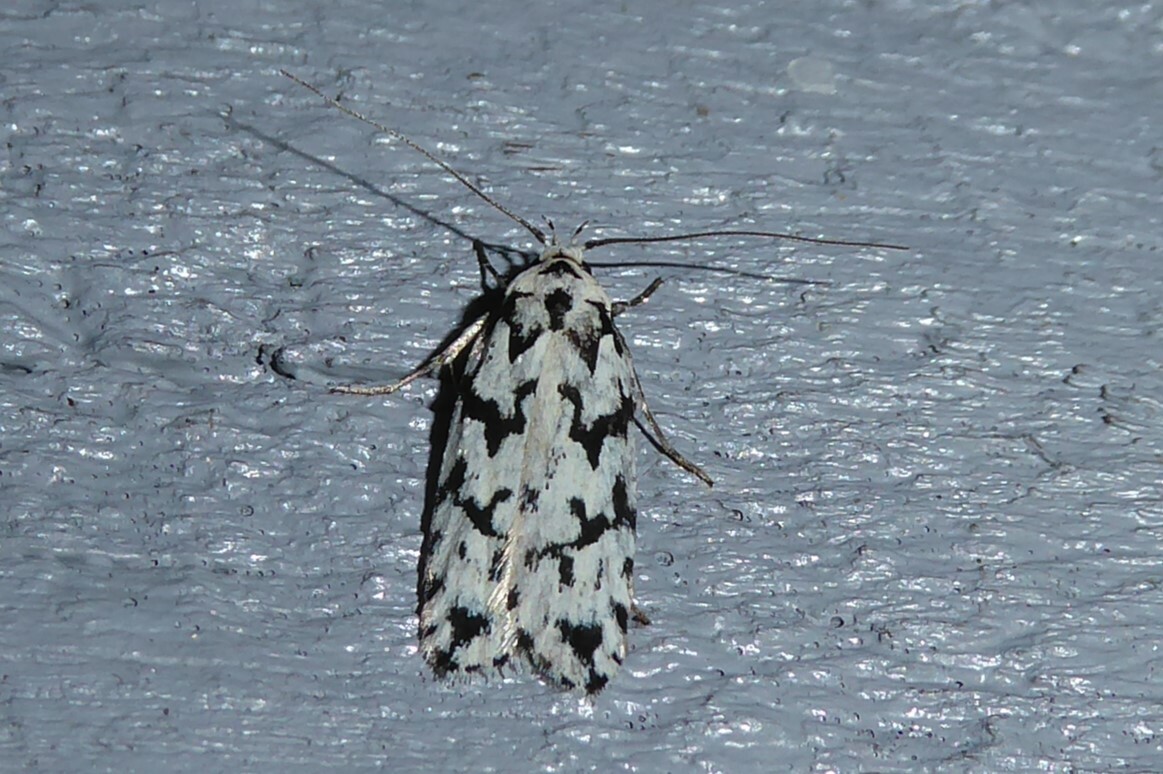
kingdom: Animalia
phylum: Arthropoda
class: Insecta
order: Lepidoptera
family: Oecophoridae
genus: Izatha
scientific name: Izatha katadiktya
